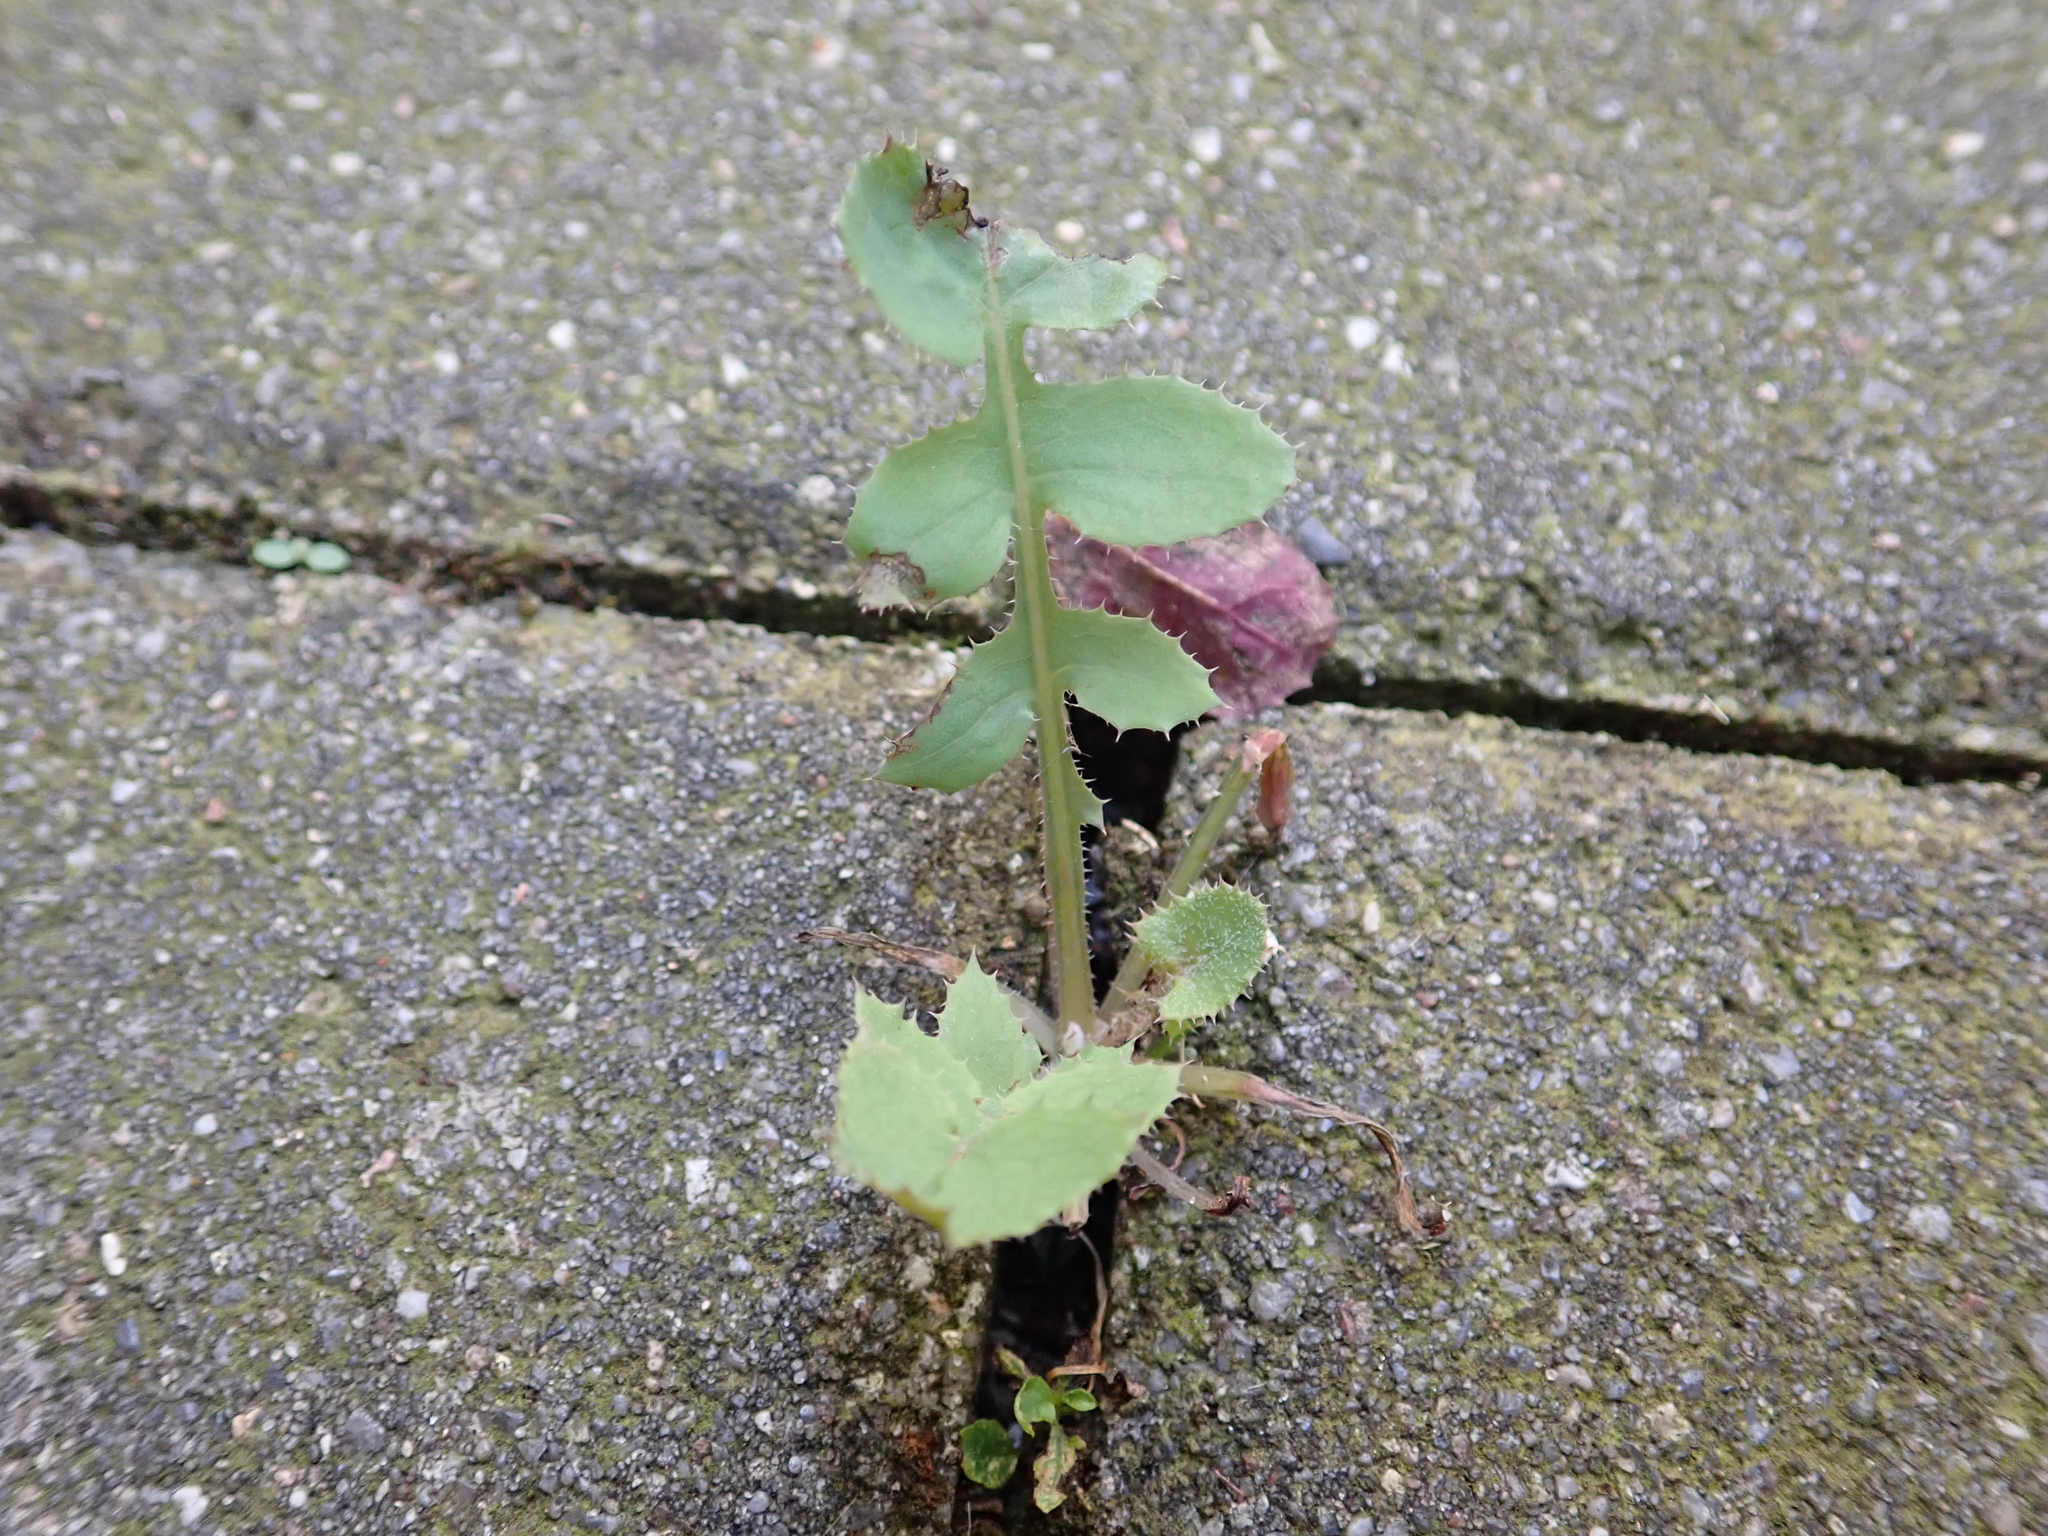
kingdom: Plantae
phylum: Tracheophyta
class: Magnoliopsida
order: Asterales
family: Asteraceae
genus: Sonchus
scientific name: Sonchus oleraceus
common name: Common sowthistle
